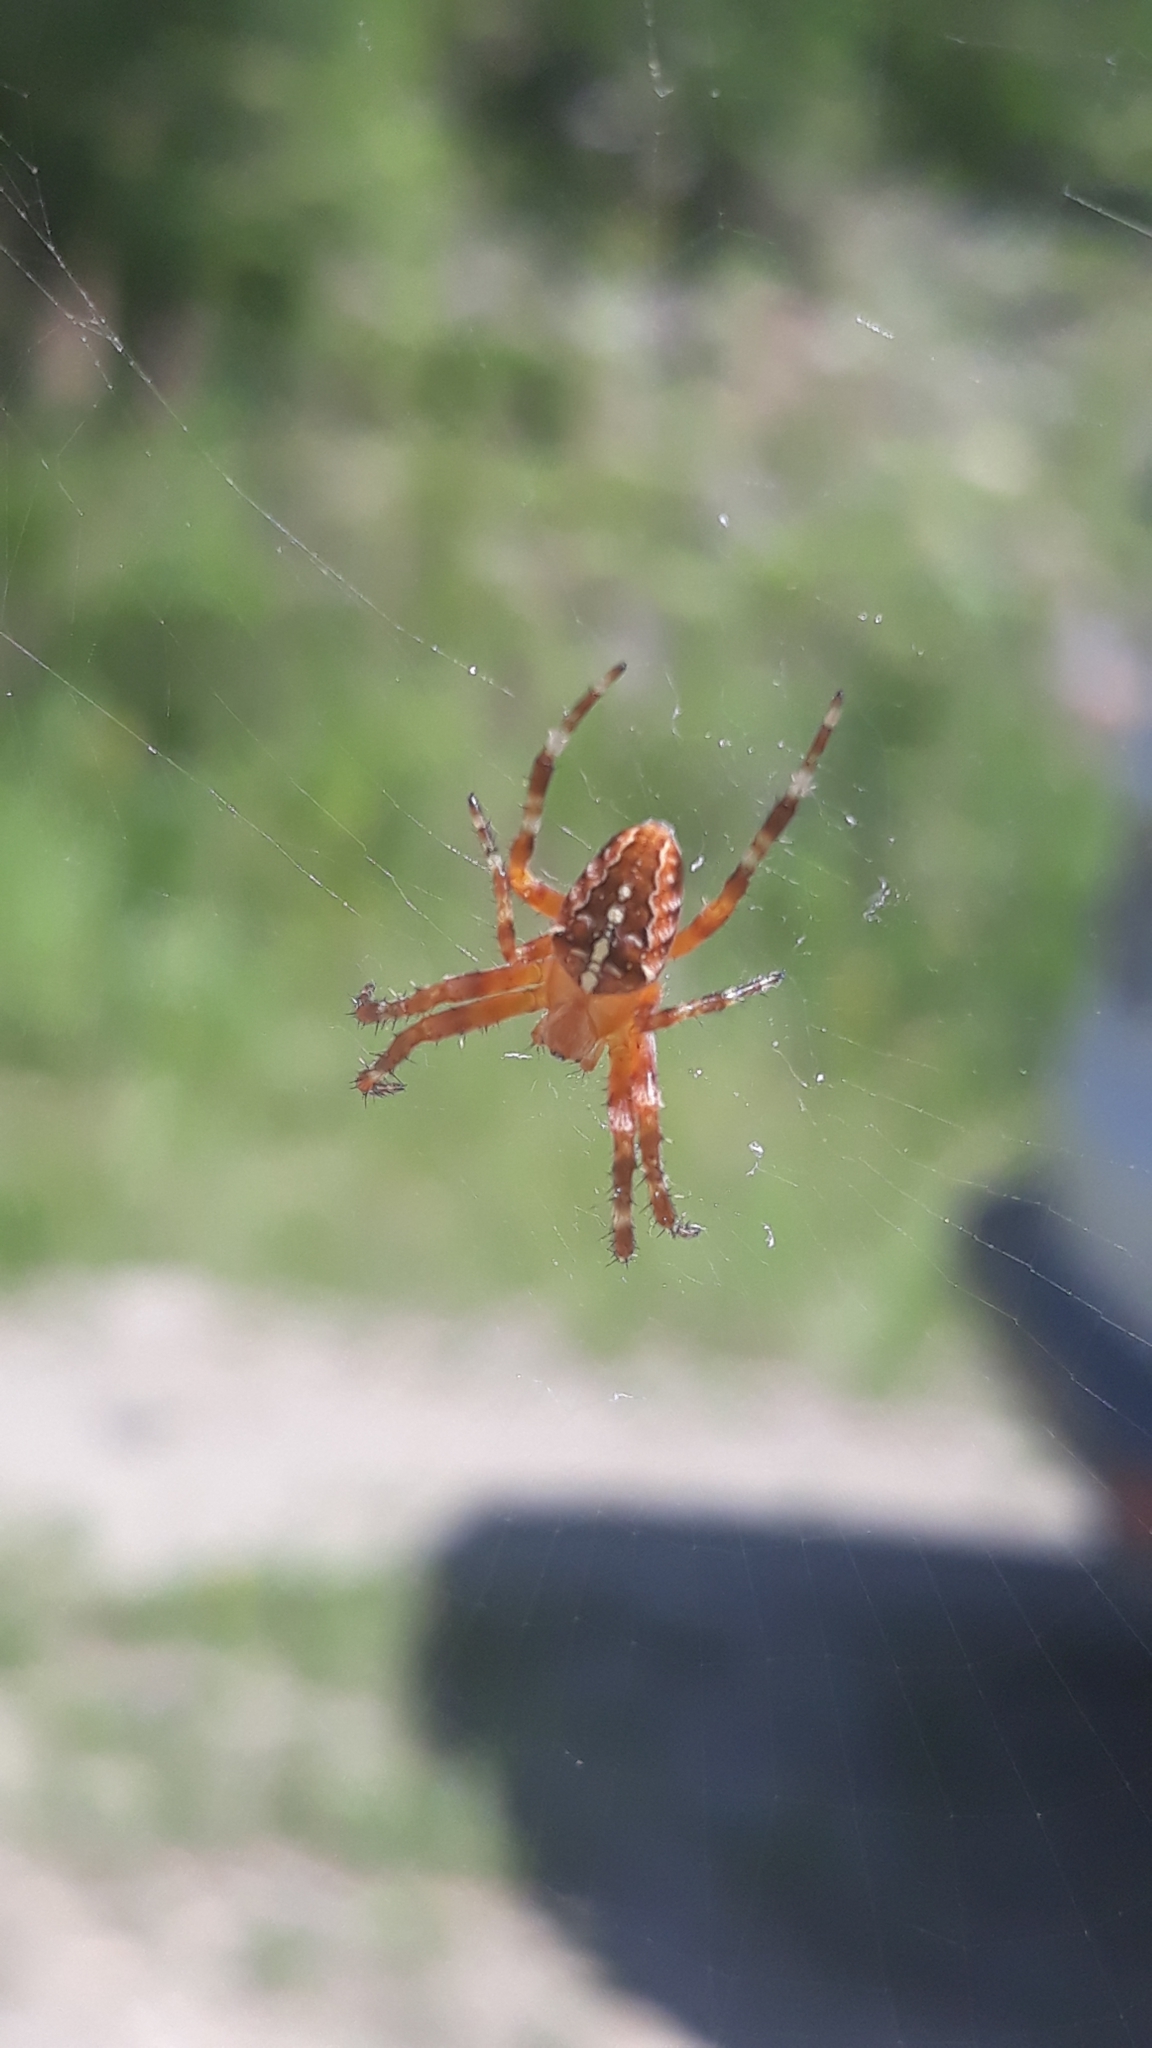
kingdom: Animalia
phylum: Arthropoda
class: Arachnida
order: Araneae
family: Araneidae
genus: Araneus
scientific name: Araneus diadematus
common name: Cross orbweaver
